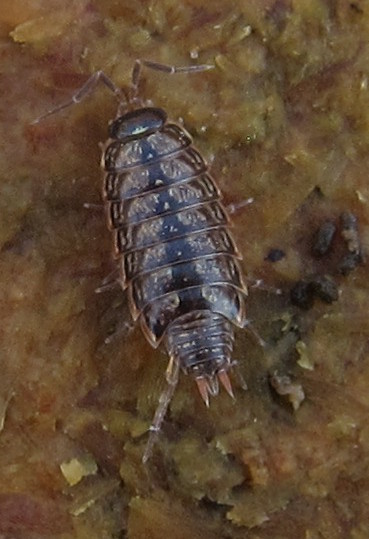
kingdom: Animalia
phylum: Arthropoda
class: Malacostraca
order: Isopoda
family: Philosciidae
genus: Philoscia
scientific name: Philoscia muscorum
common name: Common striped woodlouse
